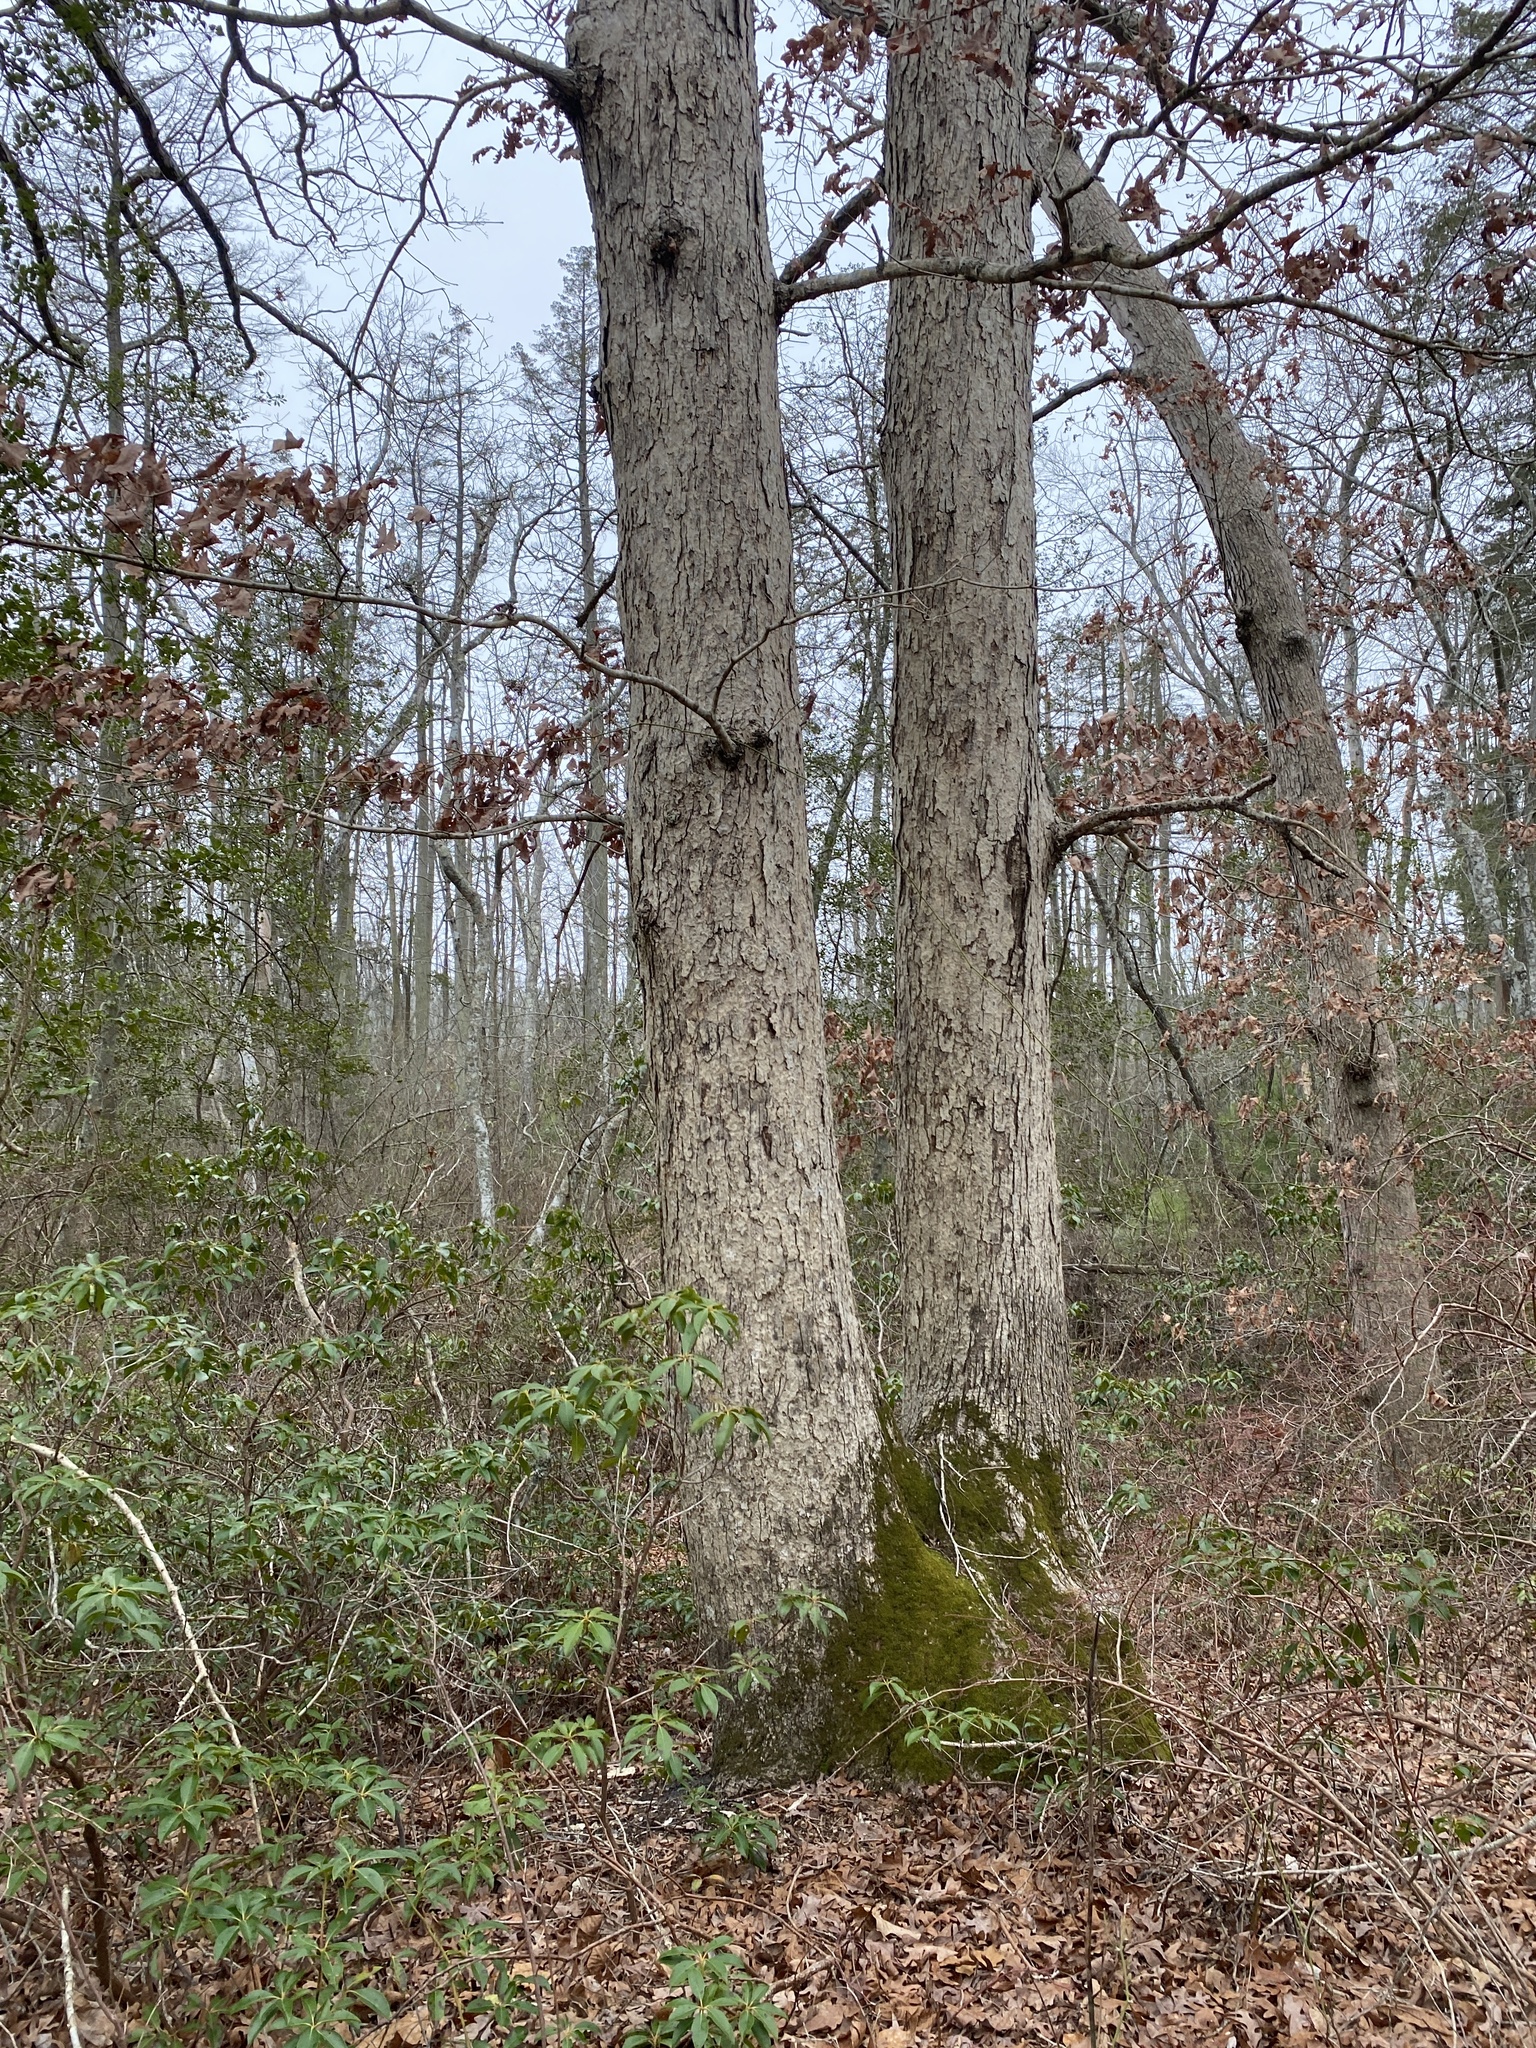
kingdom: Plantae
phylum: Tracheophyta
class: Magnoliopsida
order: Fagales
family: Fagaceae
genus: Quercus
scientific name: Quercus alba
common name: White oak
